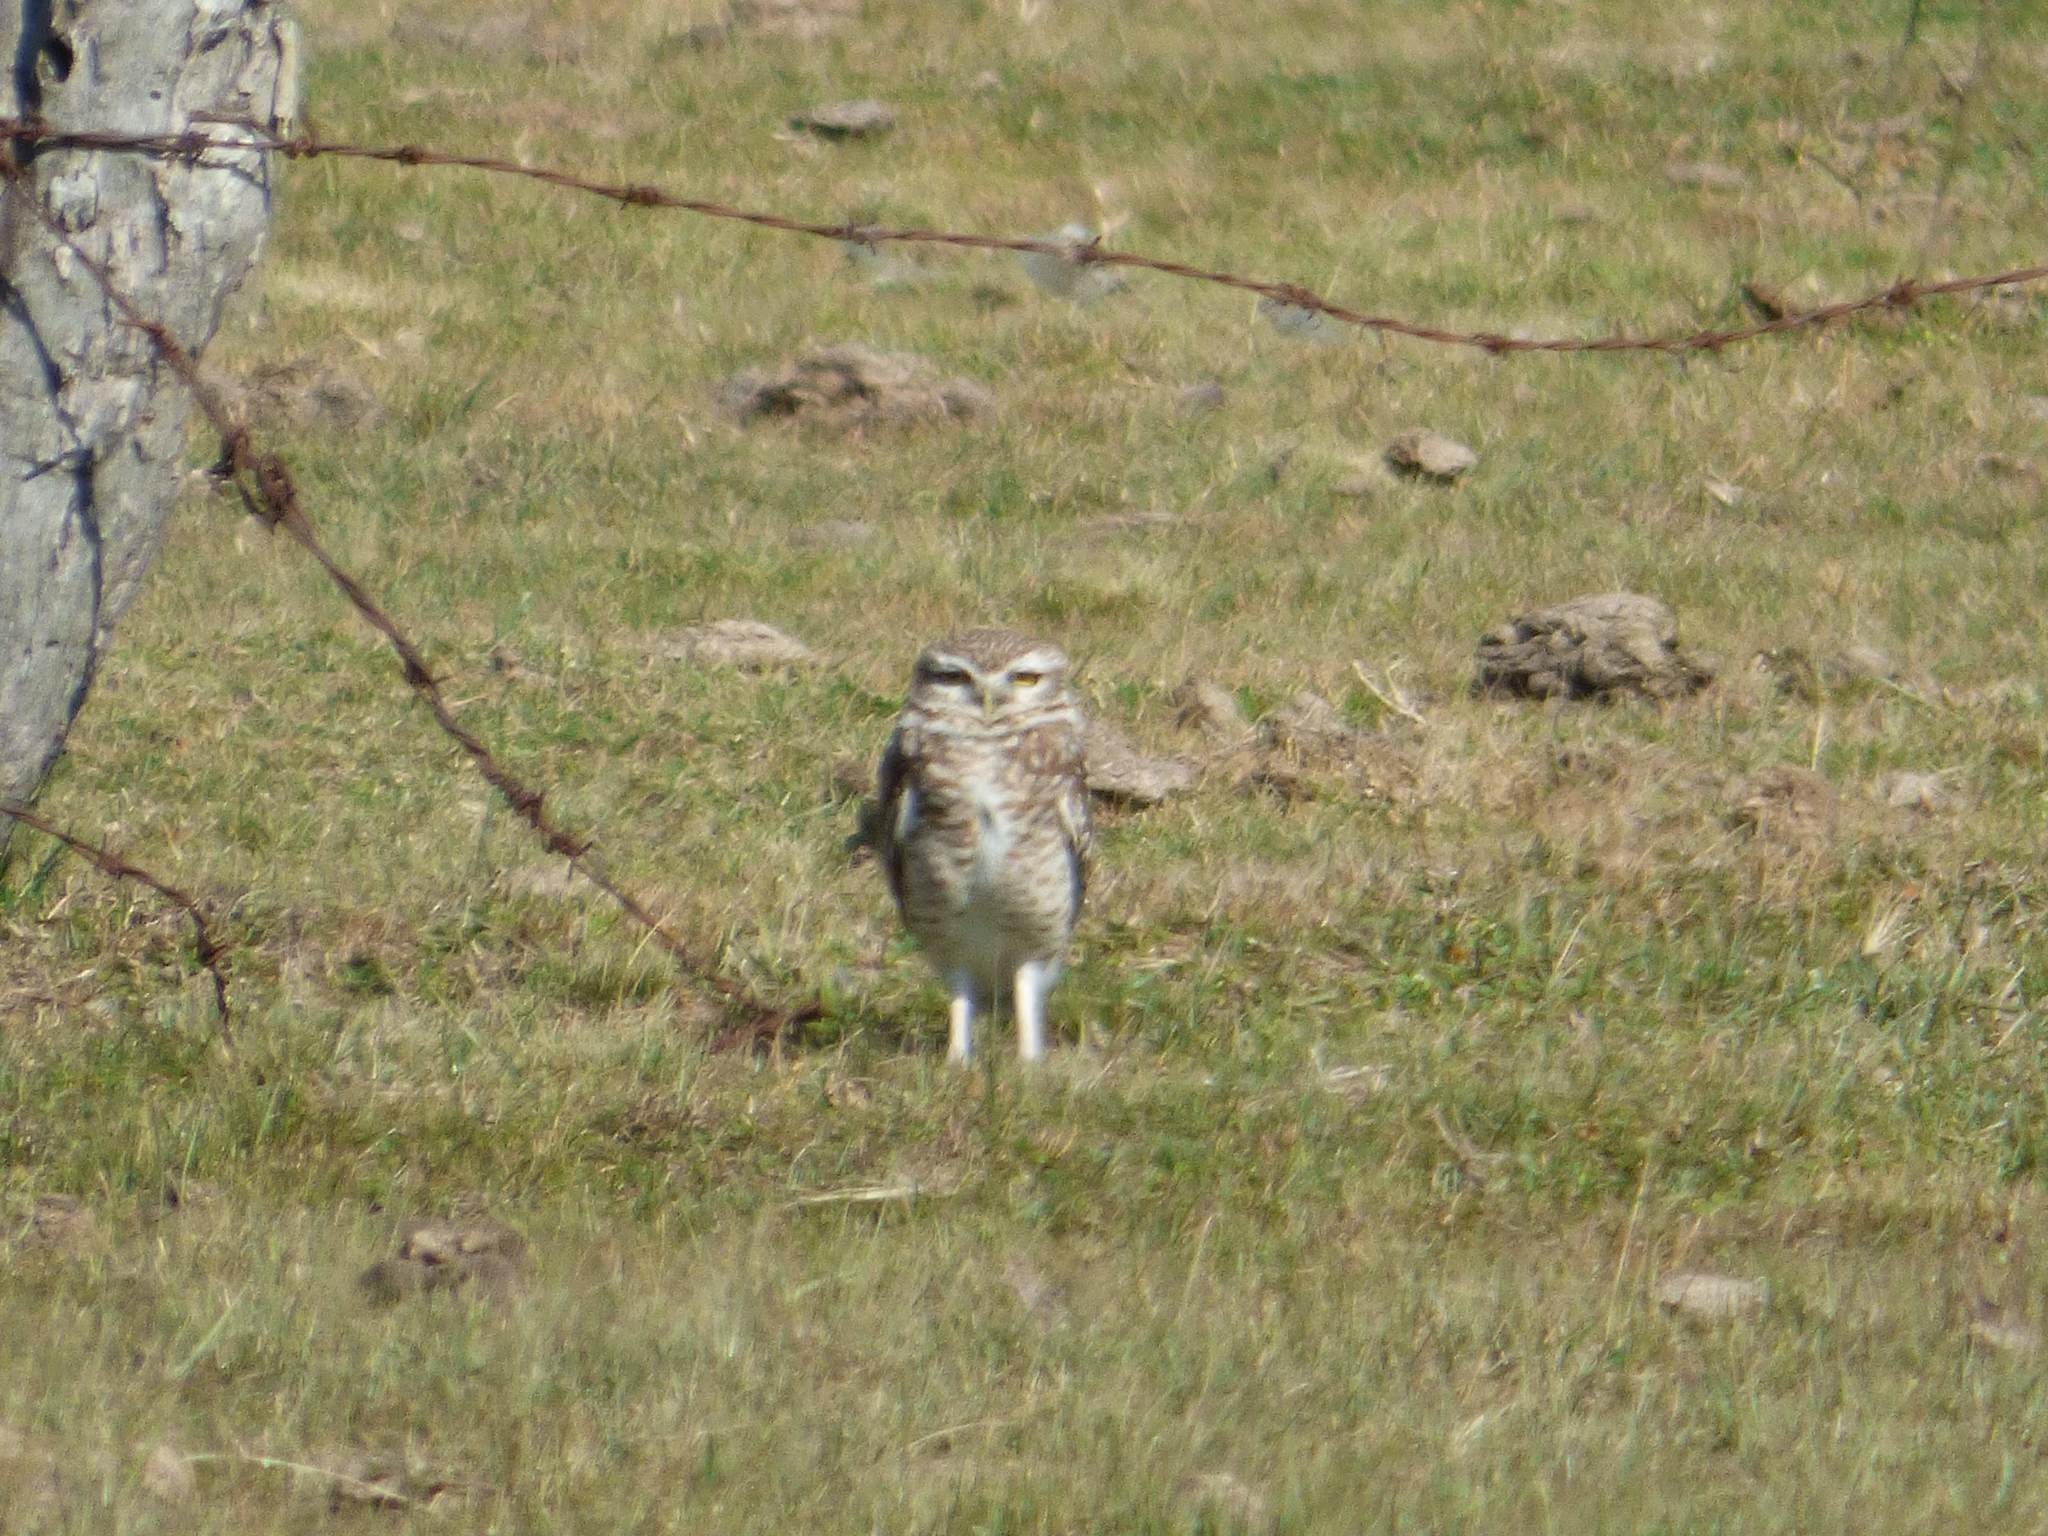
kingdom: Animalia
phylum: Chordata
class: Aves
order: Strigiformes
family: Strigidae
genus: Athene
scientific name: Athene cunicularia
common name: Burrowing owl
